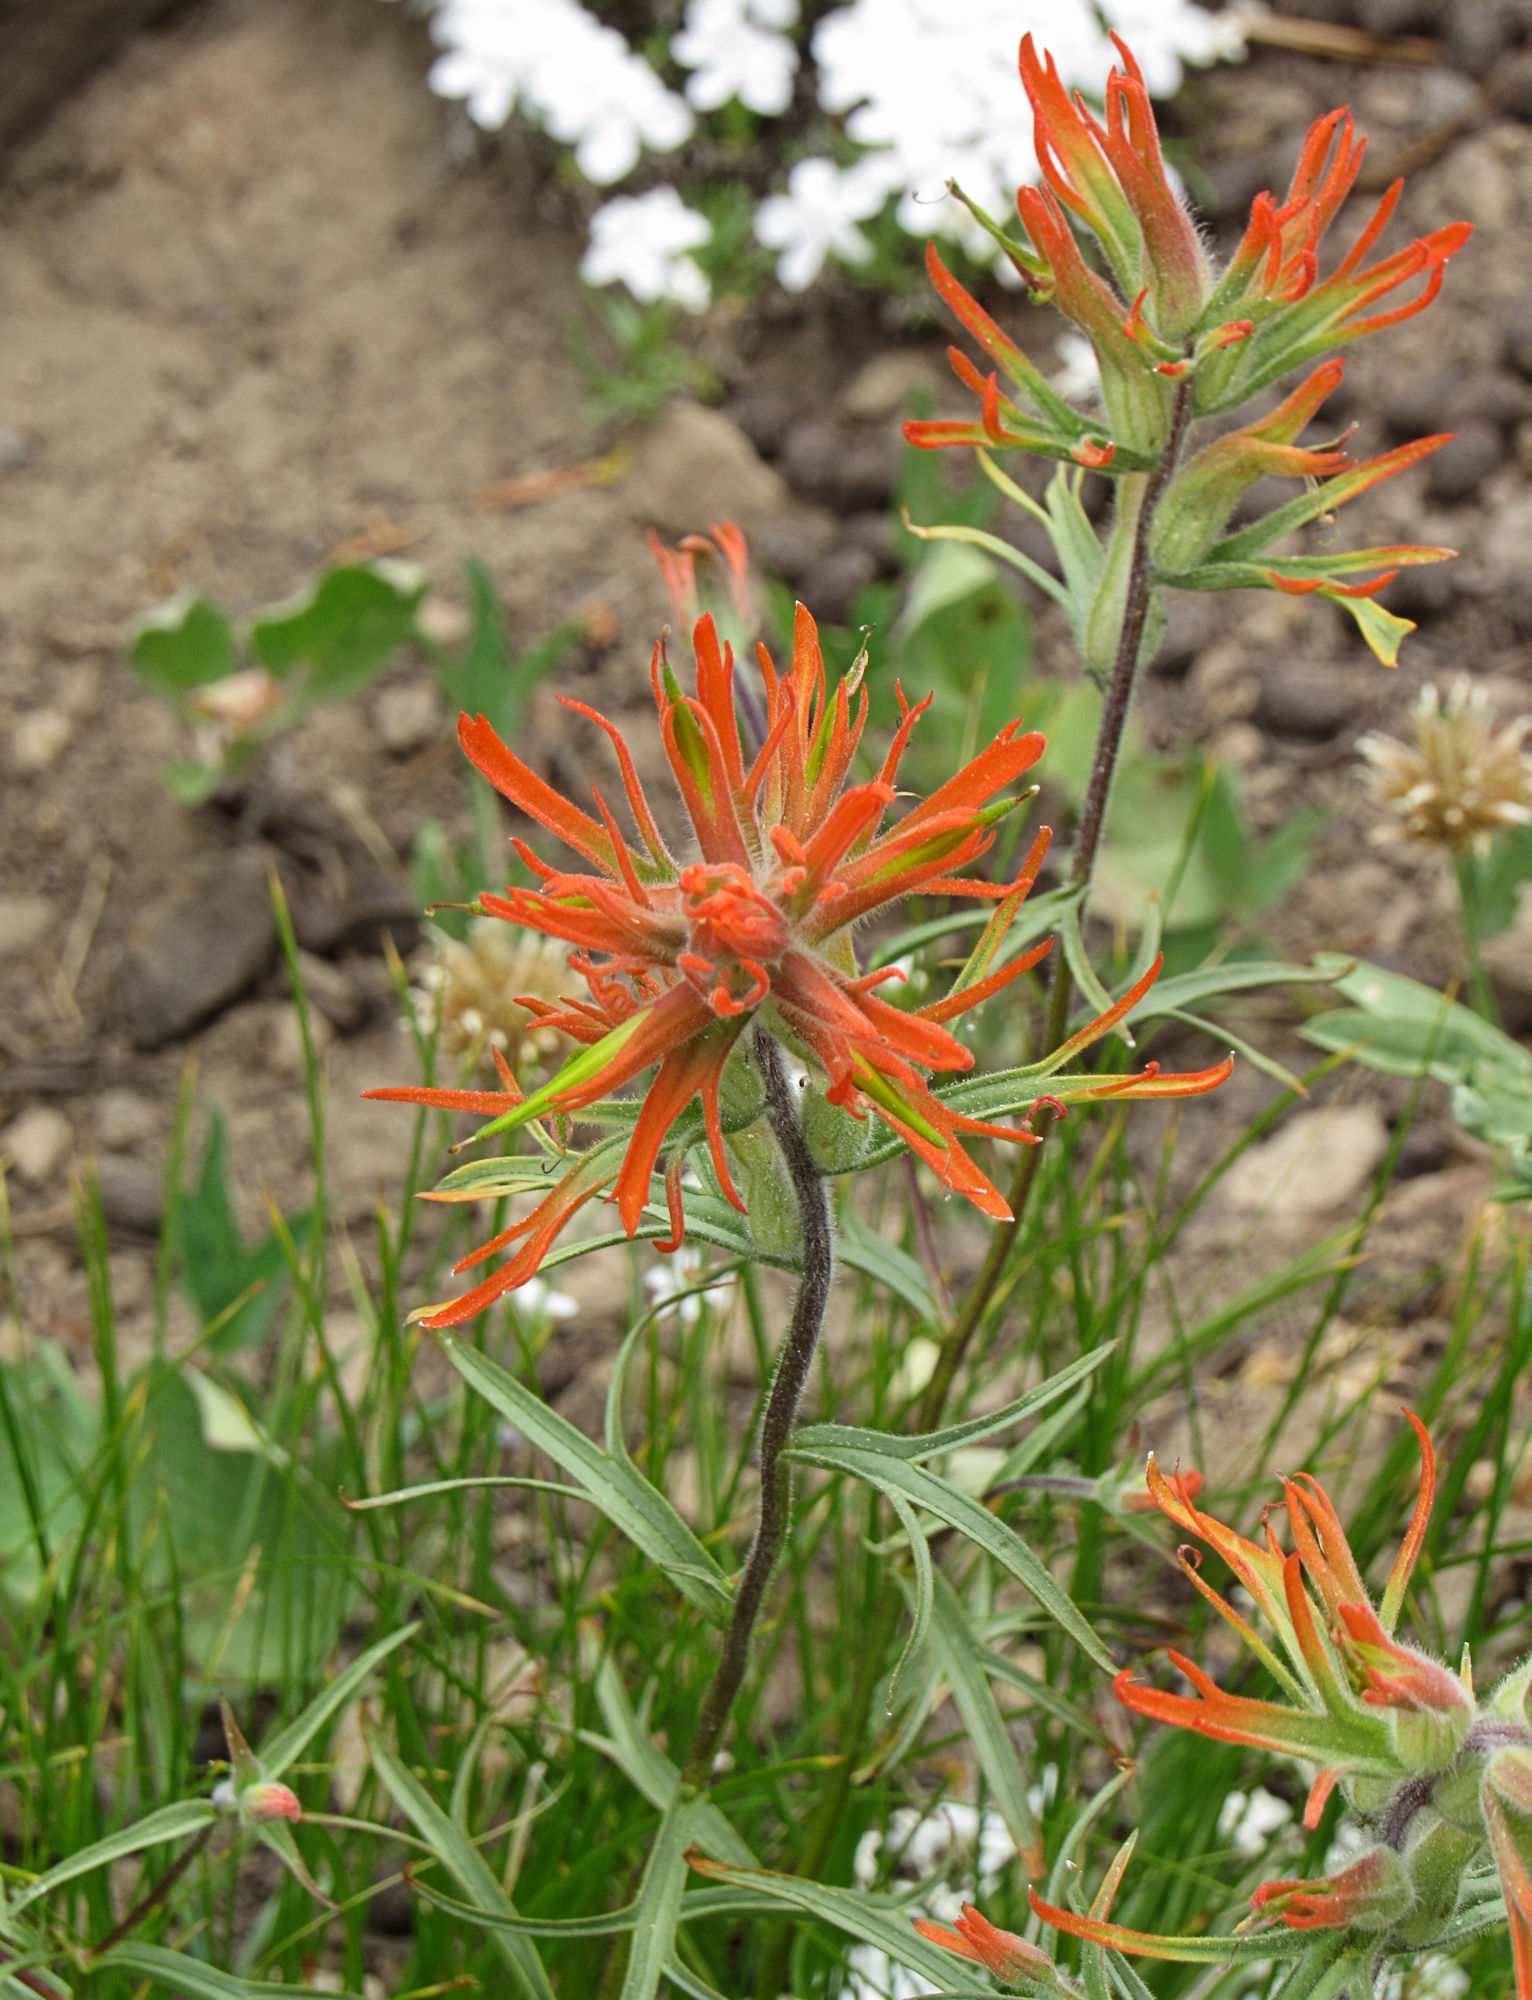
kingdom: Plantae
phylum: Tracheophyta
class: Magnoliopsida
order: Lamiales
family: Orobanchaceae
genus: Castilleja
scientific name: Castilleja crista-galli
